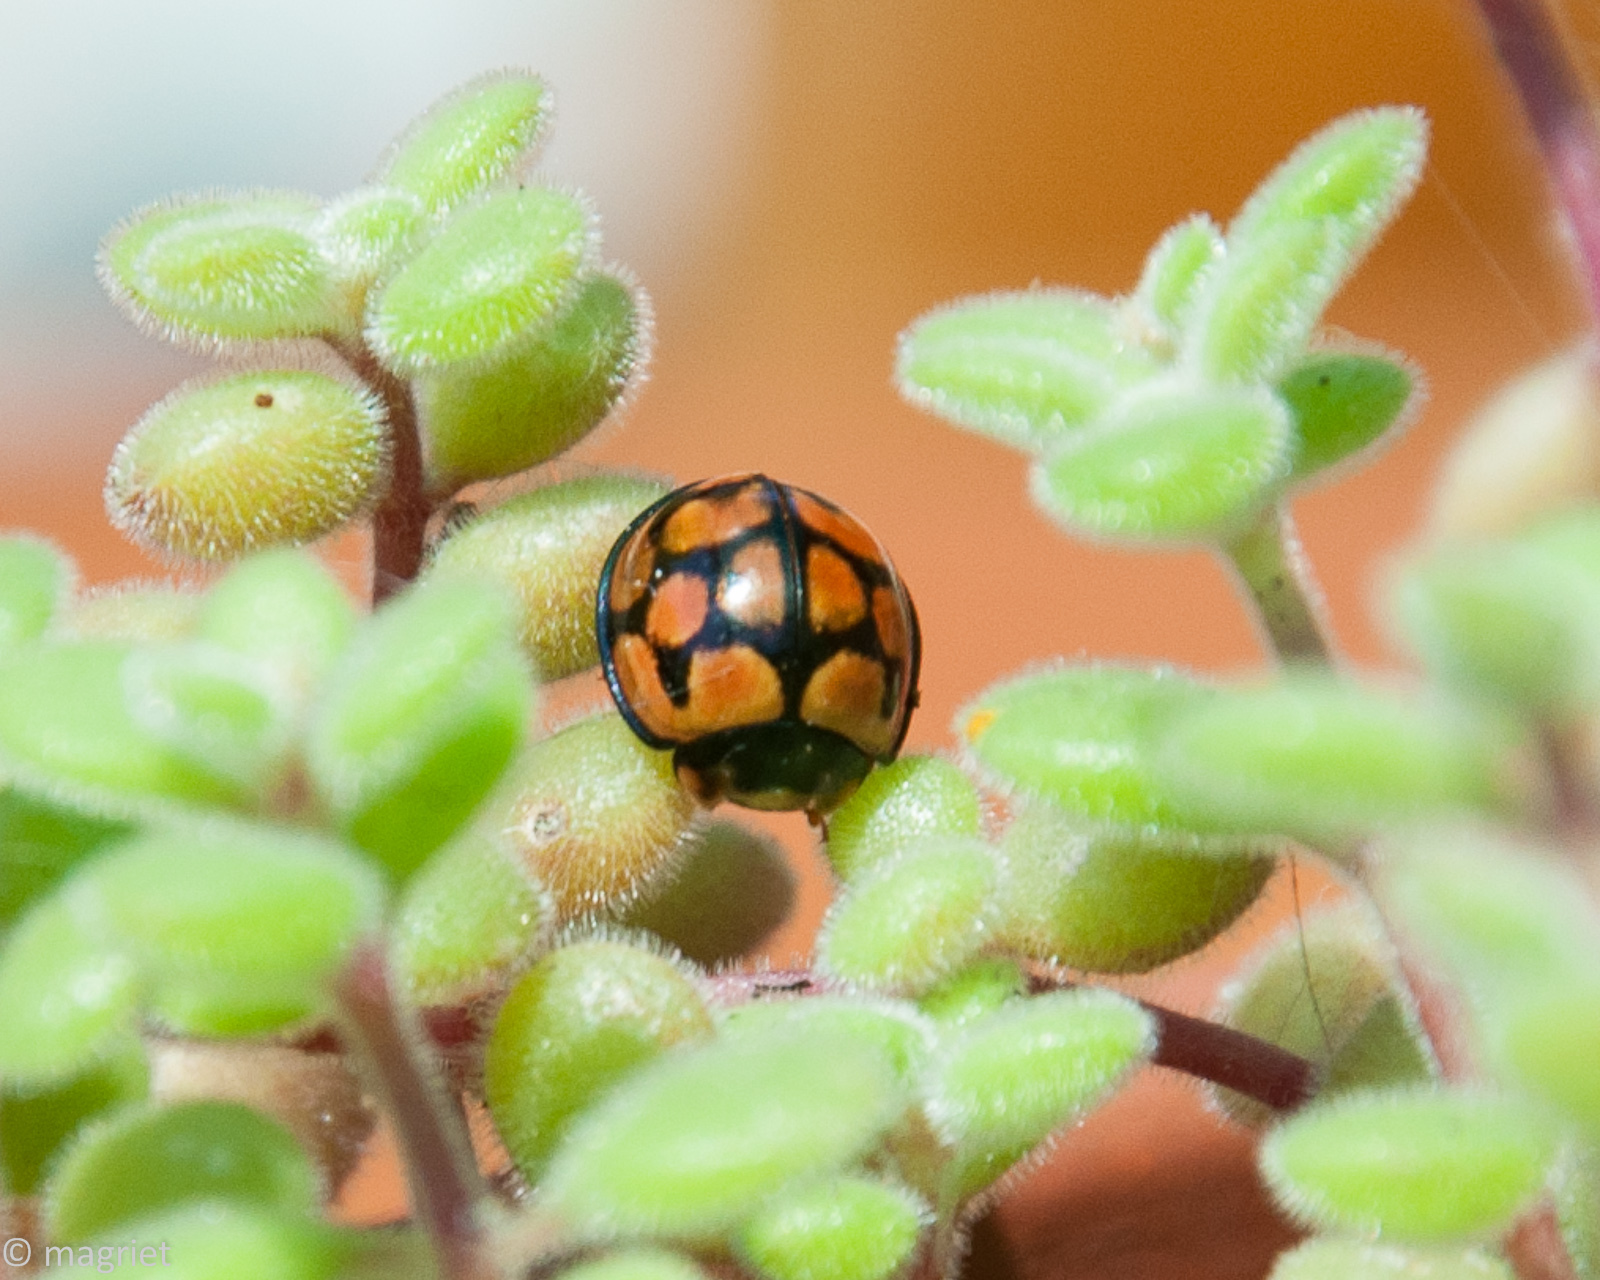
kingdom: Animalia
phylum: Arthropoda
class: Insecta
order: Coleoptera
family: Coccinellidae
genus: Cheilomenes
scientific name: Cheilomenes lunata
